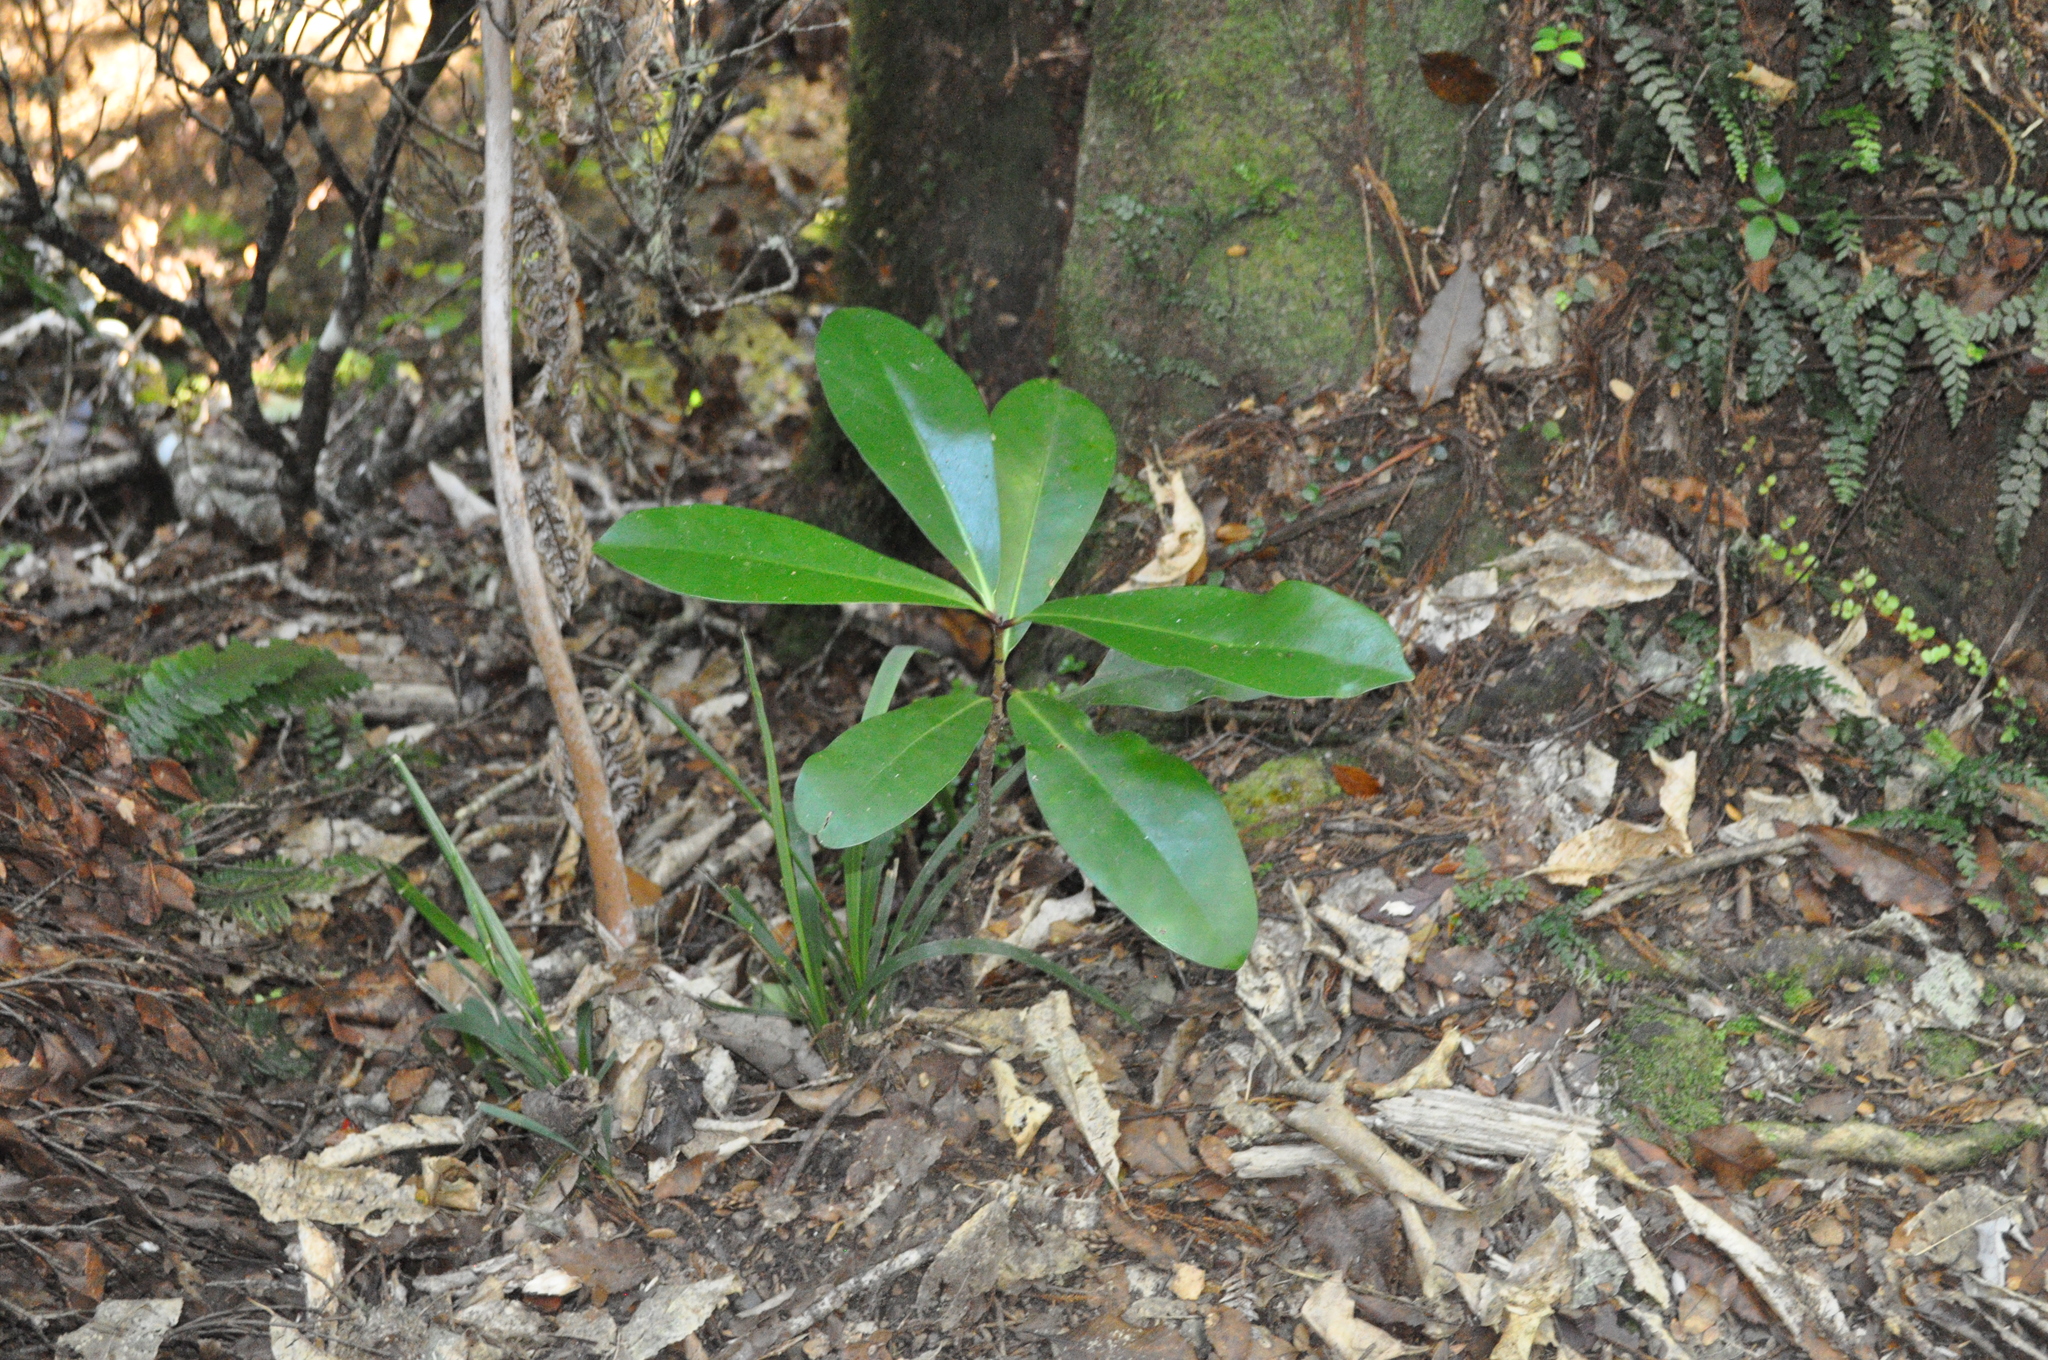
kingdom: Plantae
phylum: Tracheophyta
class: Magnoliopsida
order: Cucurbitales
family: Corynocarpaceae
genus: Corynocarpus
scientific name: Corynocarpus laevigatus
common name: New zealand laurel
